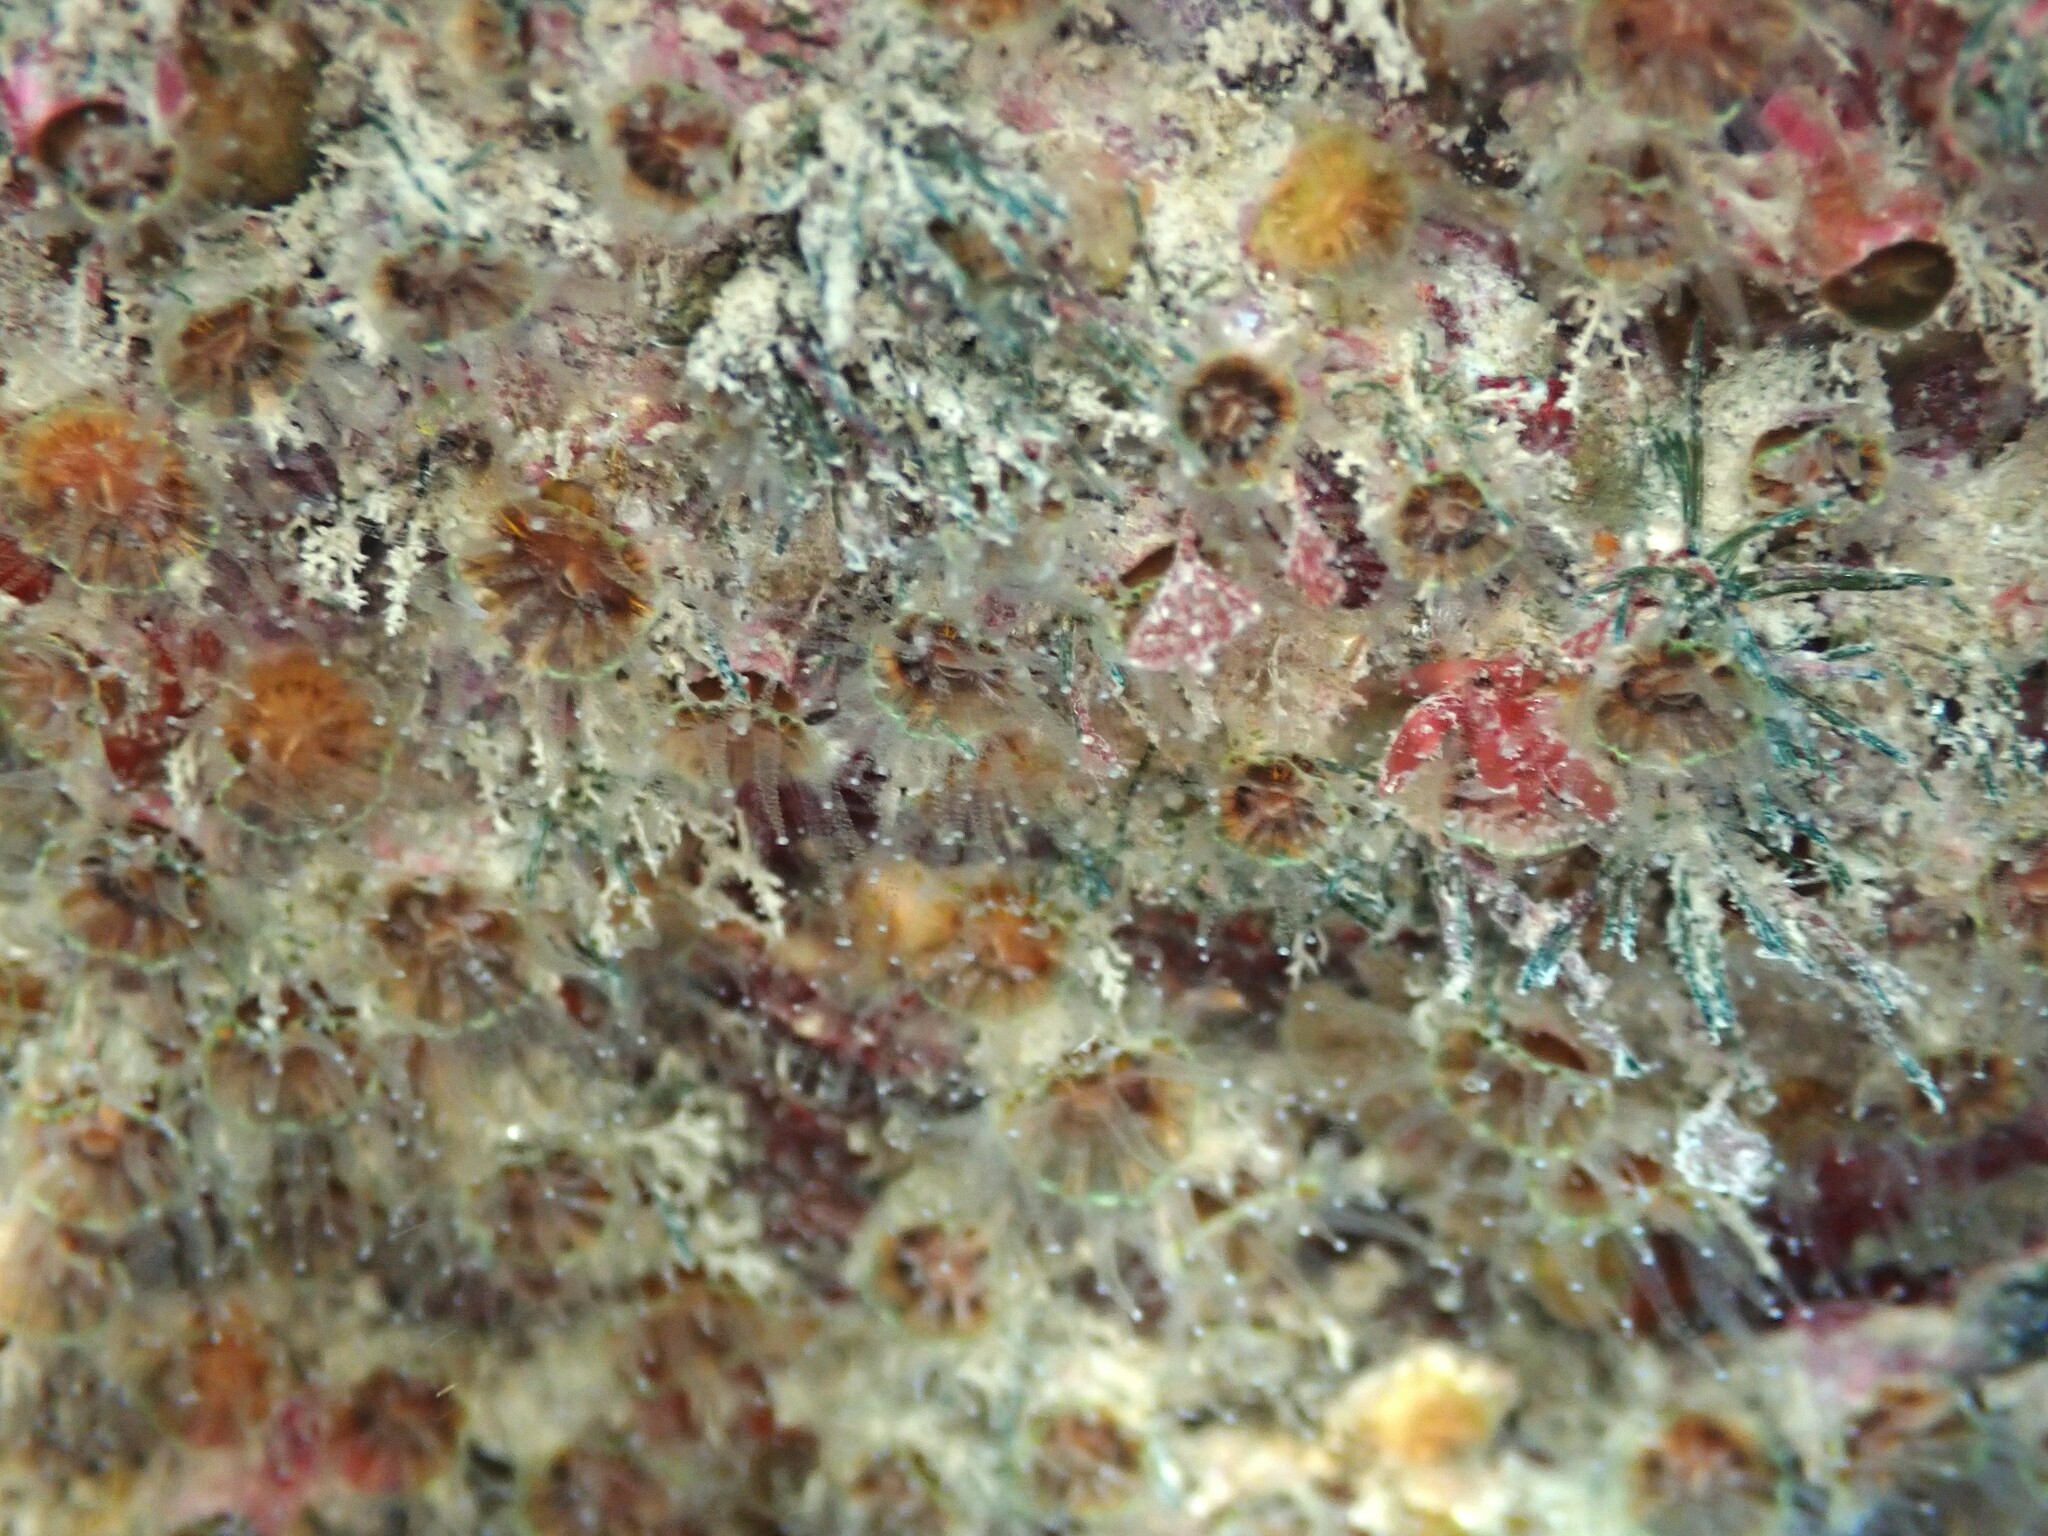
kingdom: Animalia
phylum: Cnidaria
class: Anthozoa
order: Scleractinia
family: Rhizangiidae
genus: Culicia
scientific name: Culicia rubeola
